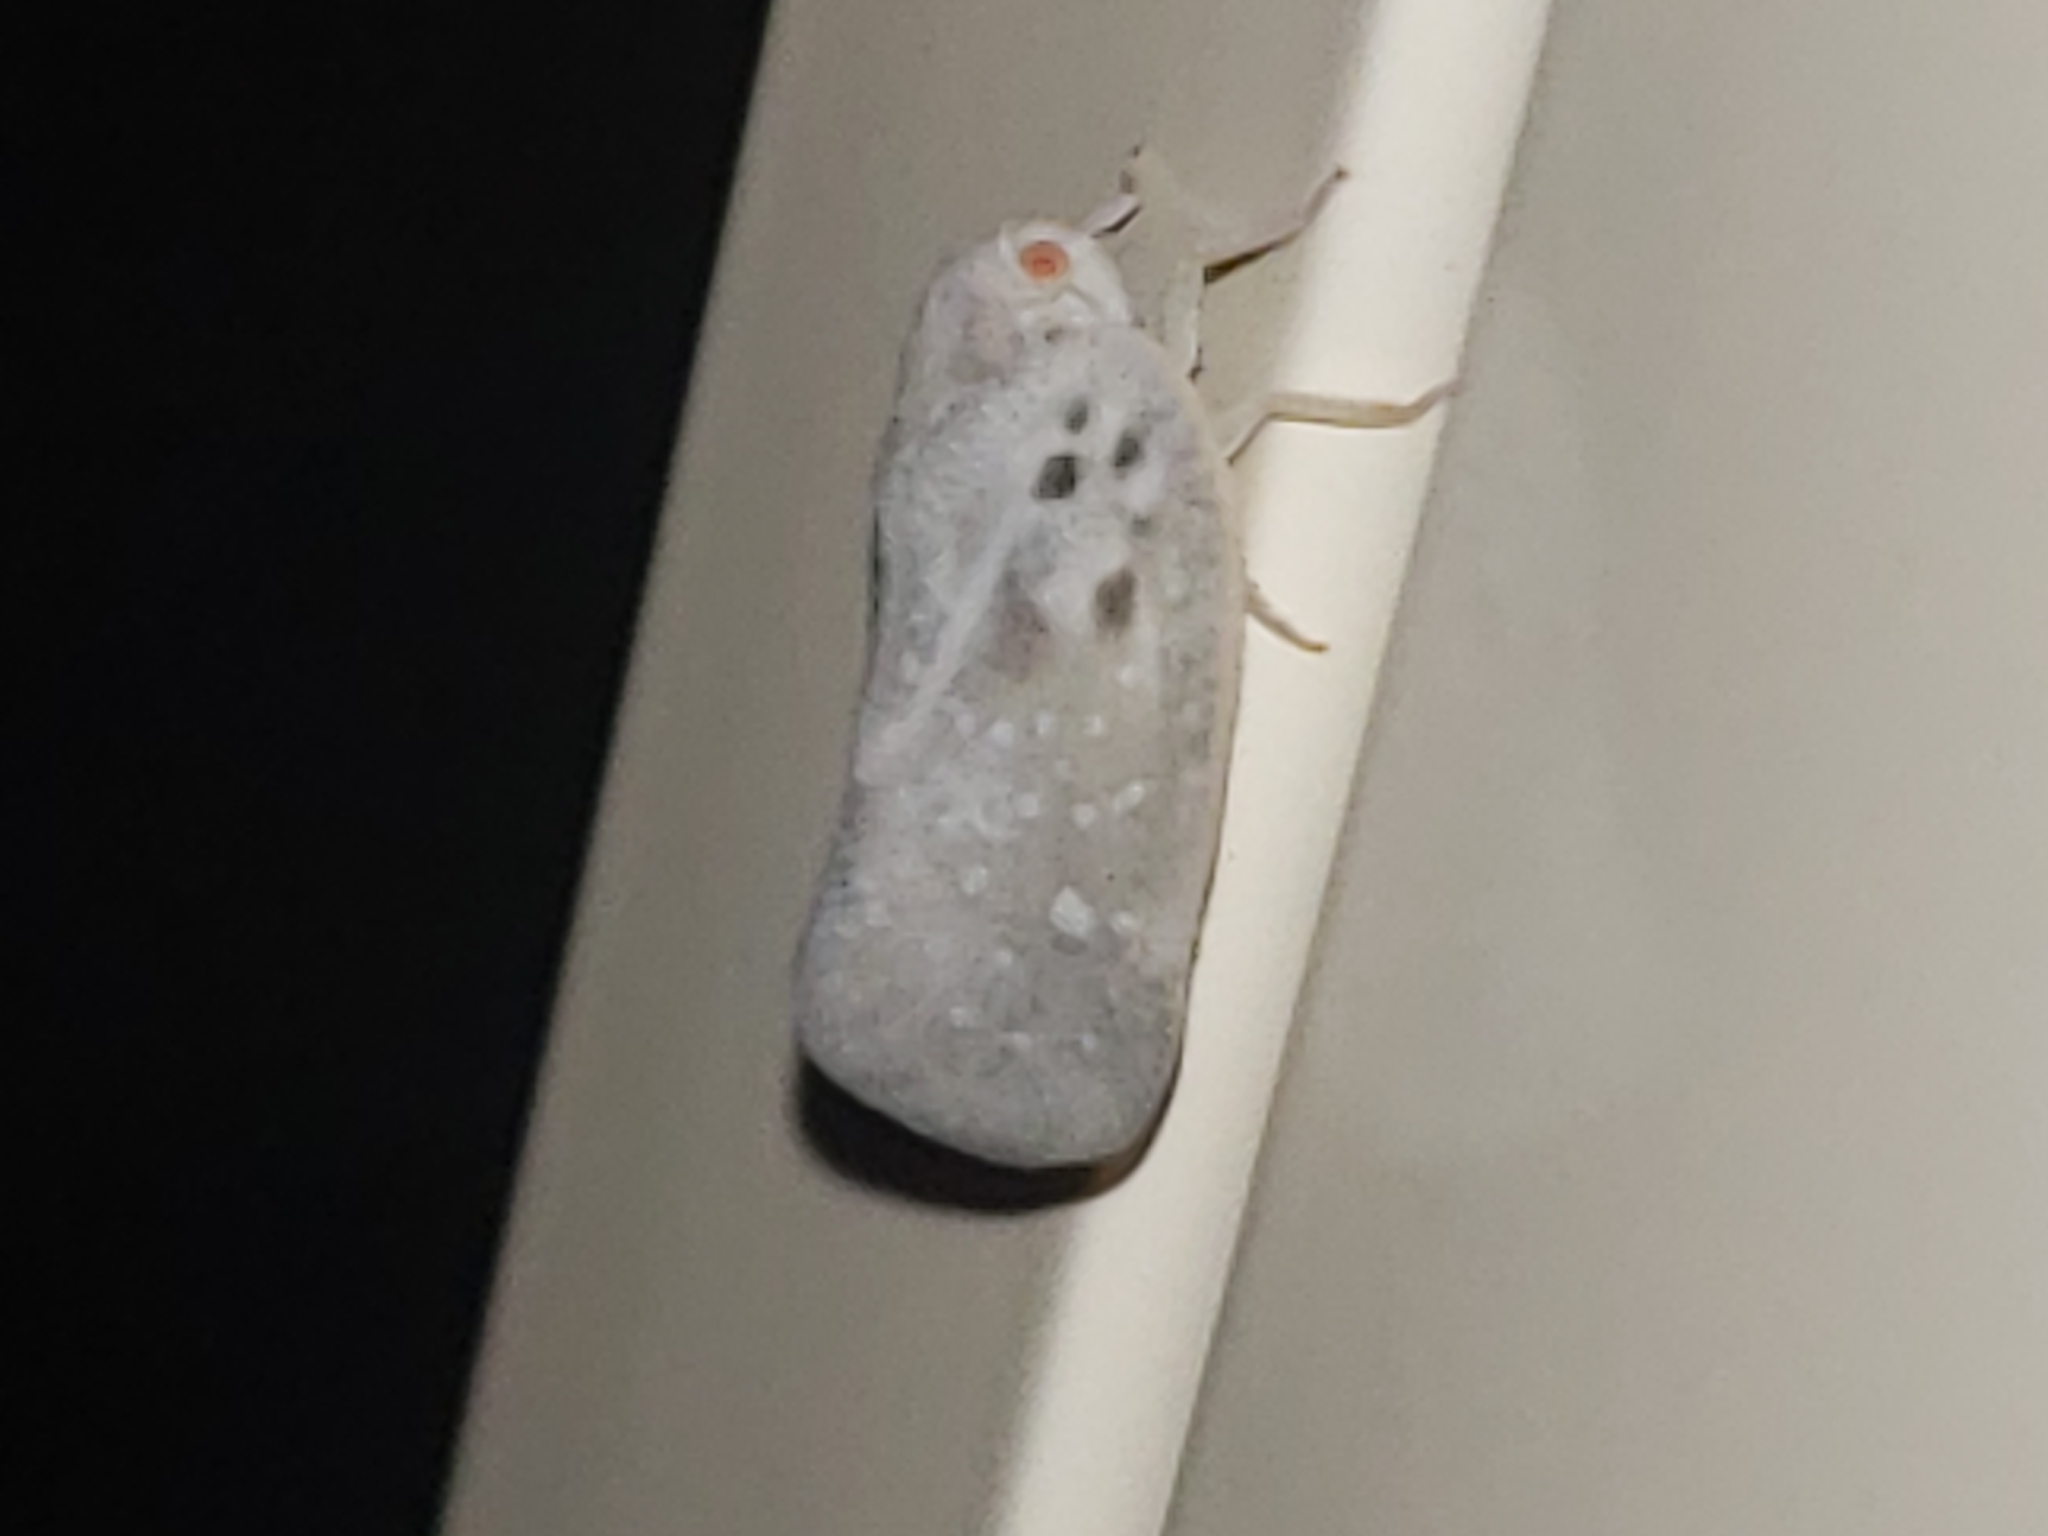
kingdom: Animalia
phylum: Arthropoda
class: Insecta
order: Hemiptera
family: Flatidae
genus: Metcalfa
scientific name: Metcalfa pruinosa
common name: Citrus flatid planthopper
